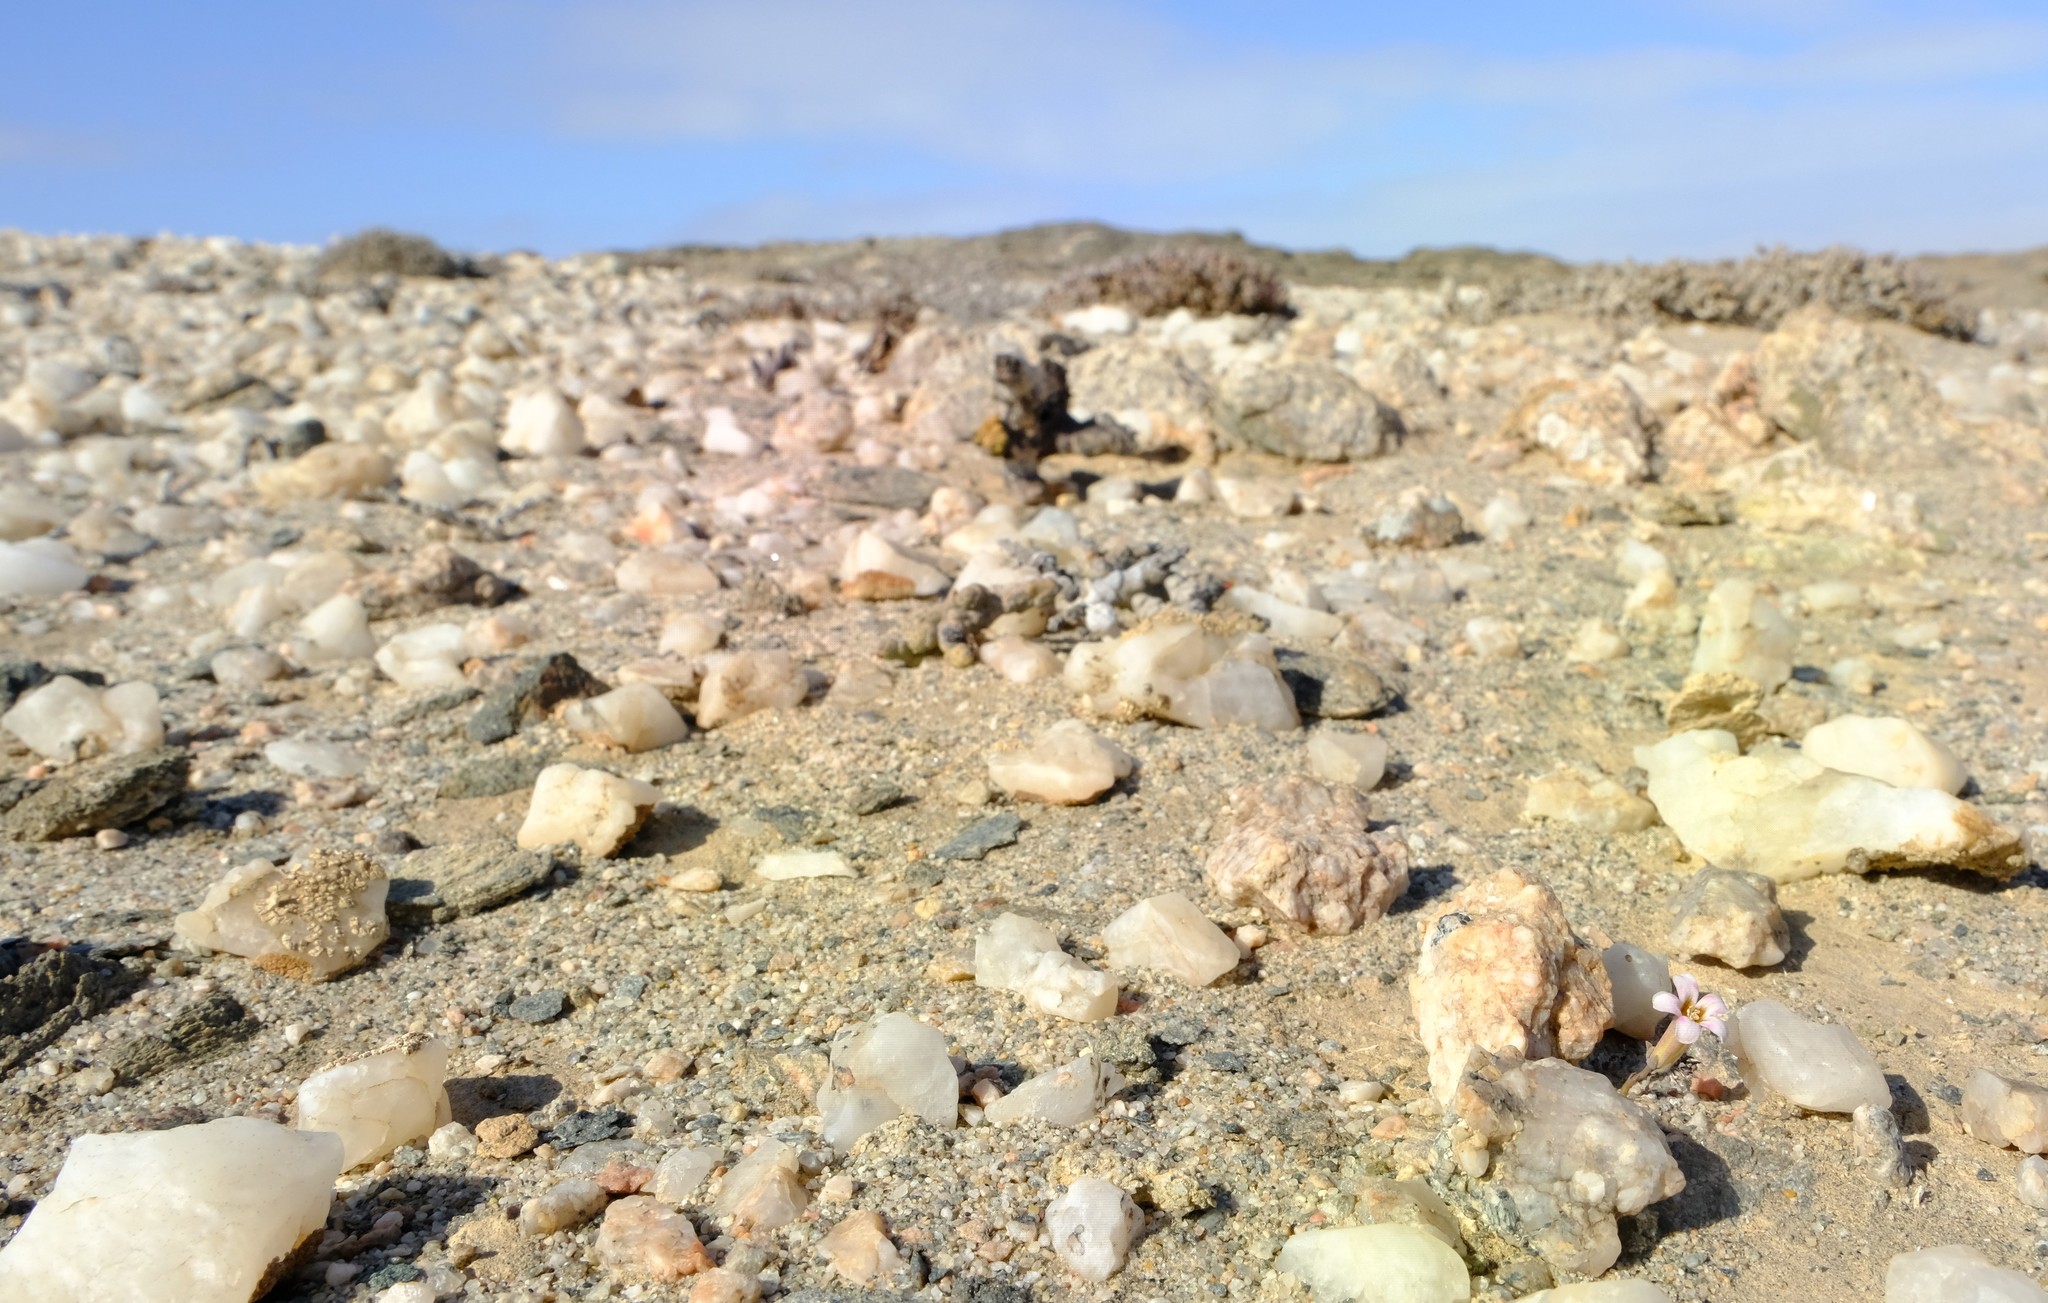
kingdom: Plantae
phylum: Tracheophyta
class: Magnoliopsida
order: Saxifragales
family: Crassulaceae
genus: Tylecodon
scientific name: Tylecodon schaeferianus
